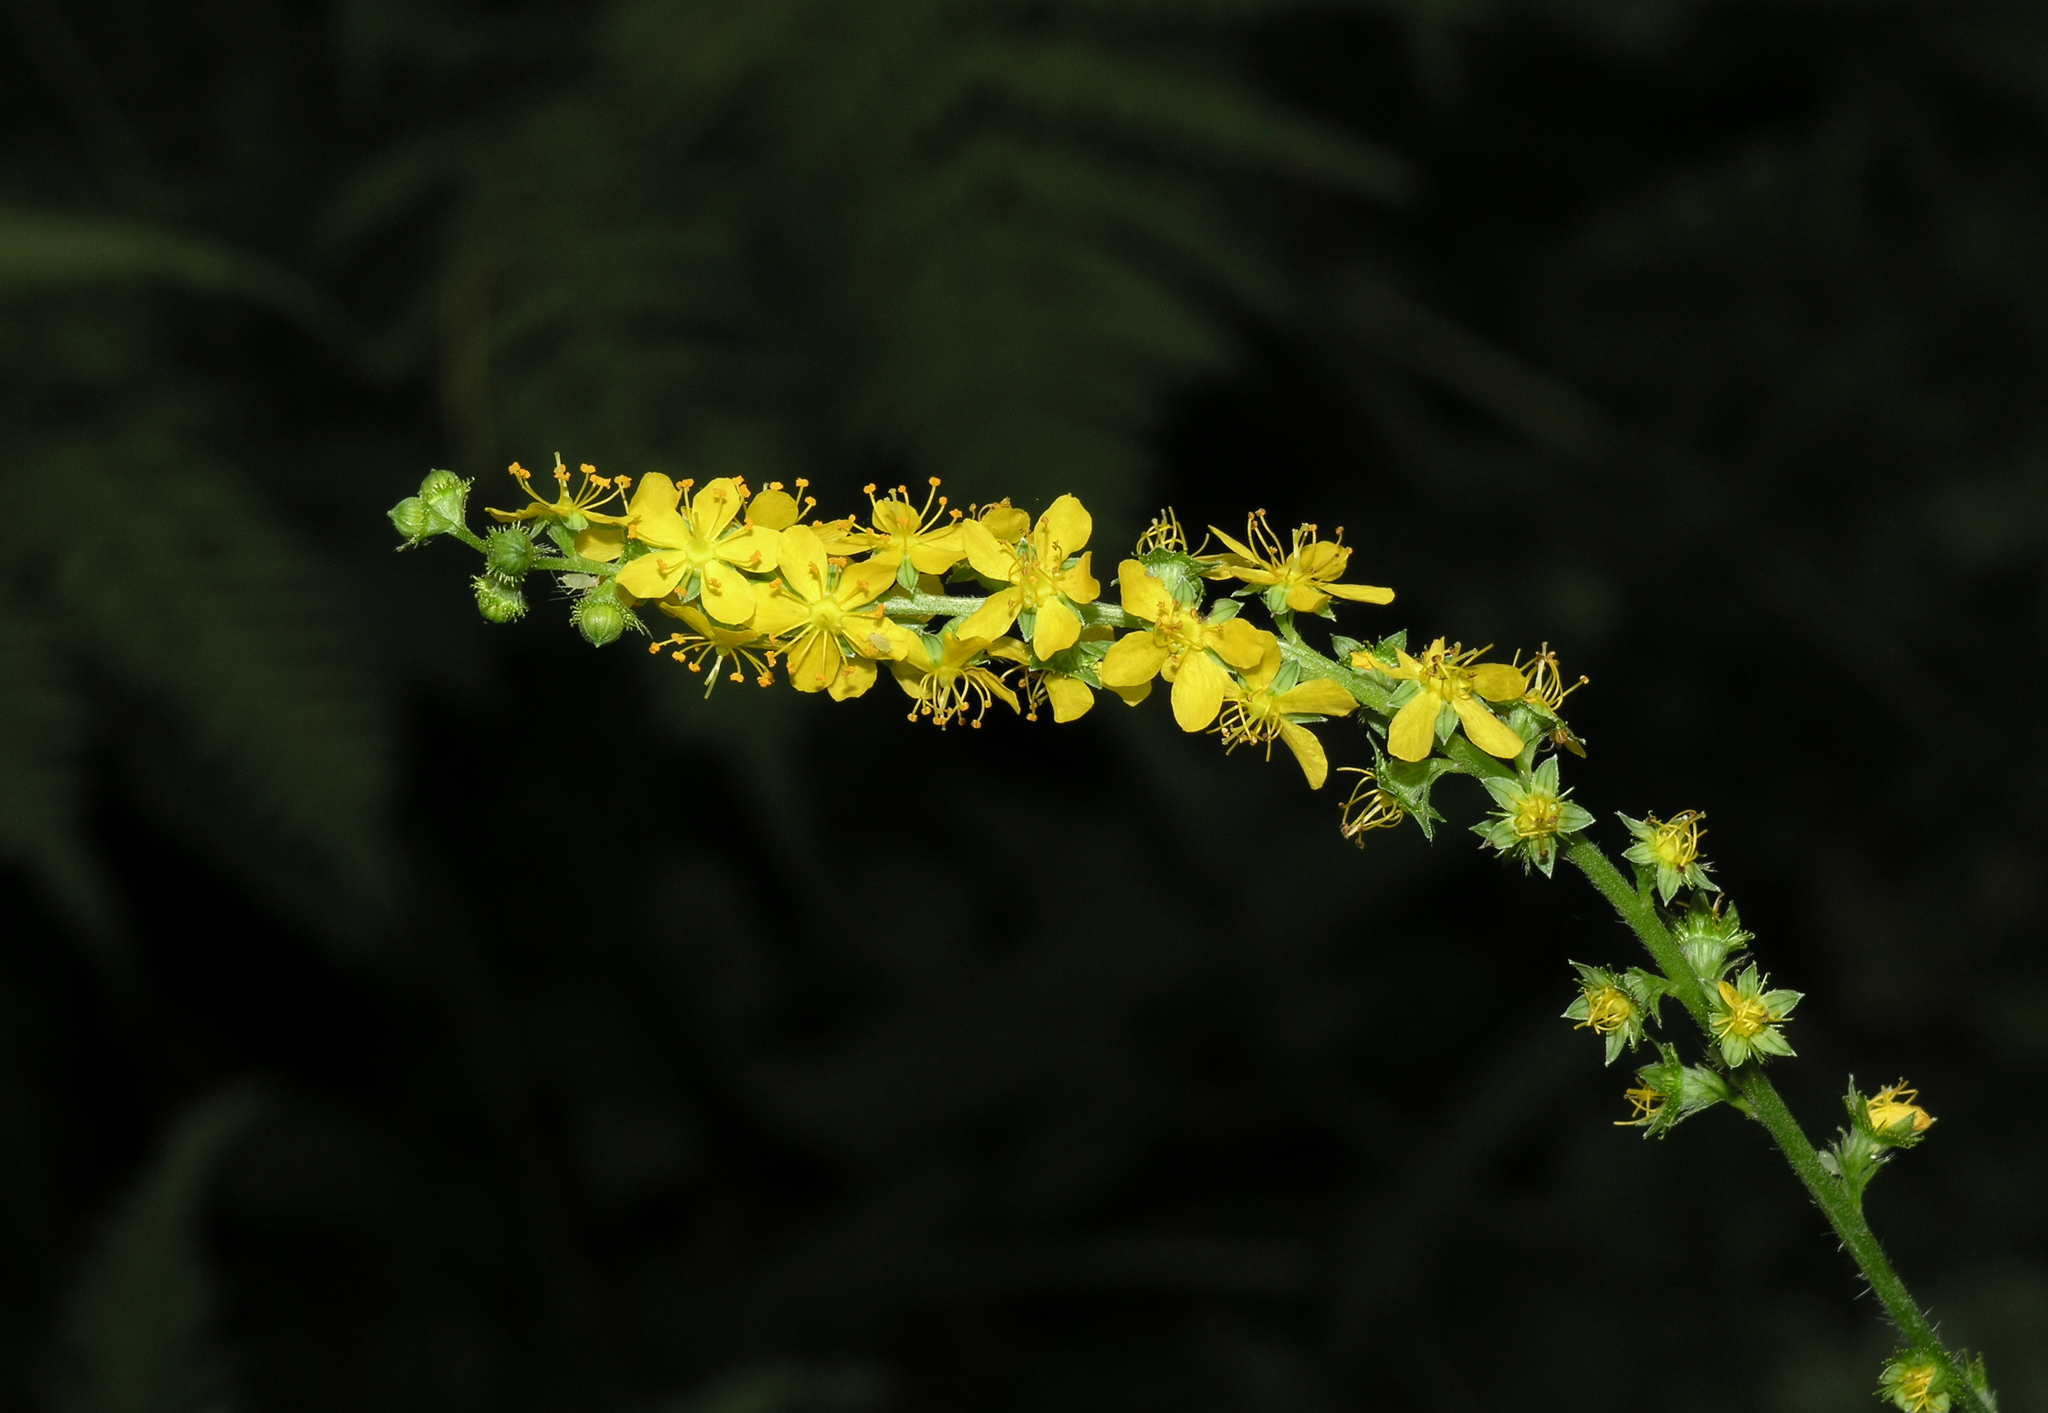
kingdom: Plantae
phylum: Tracheophyta
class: Magnoliopsida
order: Rosales
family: Rosaceae
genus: Agrimonia
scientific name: Agrimonia pilosa
